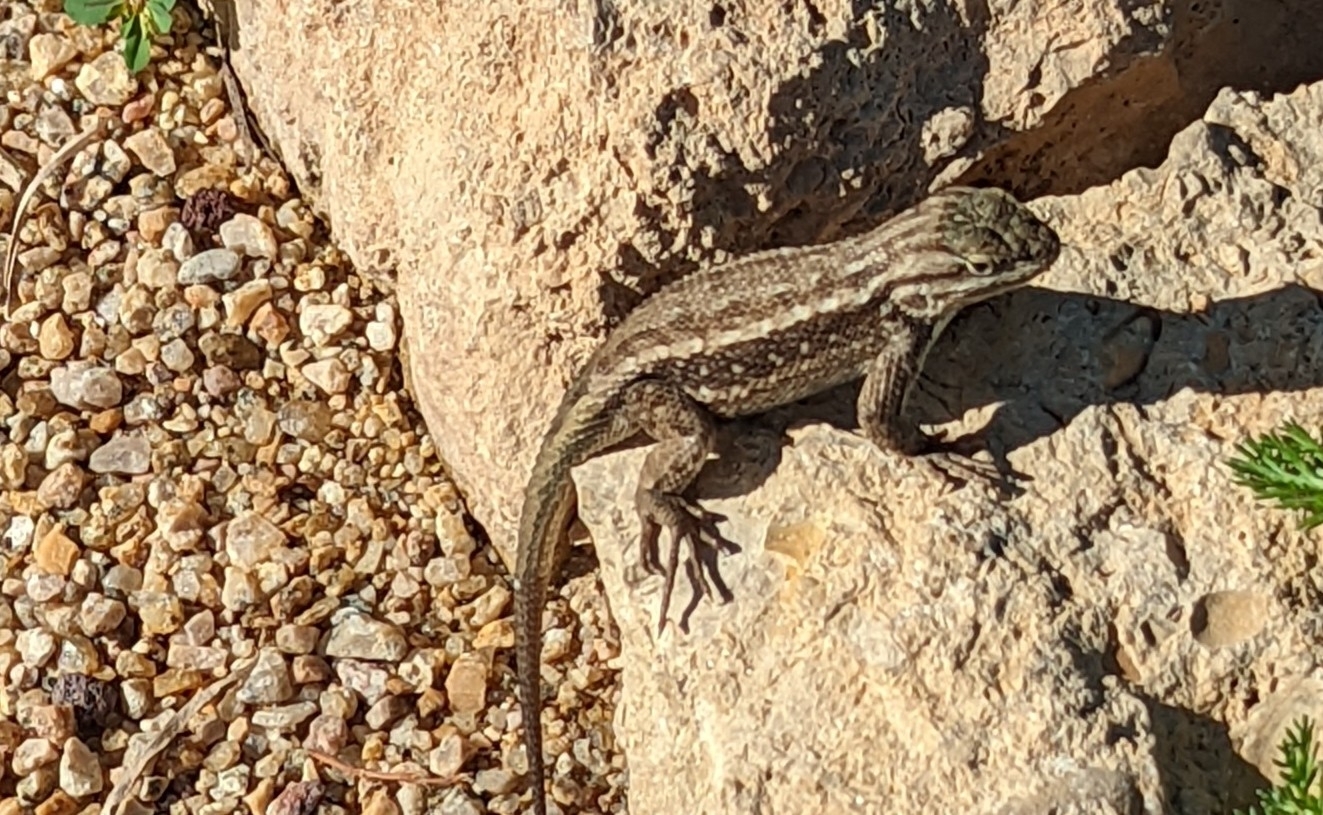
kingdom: Animalia
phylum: Chordata
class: Squamata
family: Phrynosomatidae
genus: Sceloporus
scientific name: Sceloporus tristichus
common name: Plateau fence lizard
